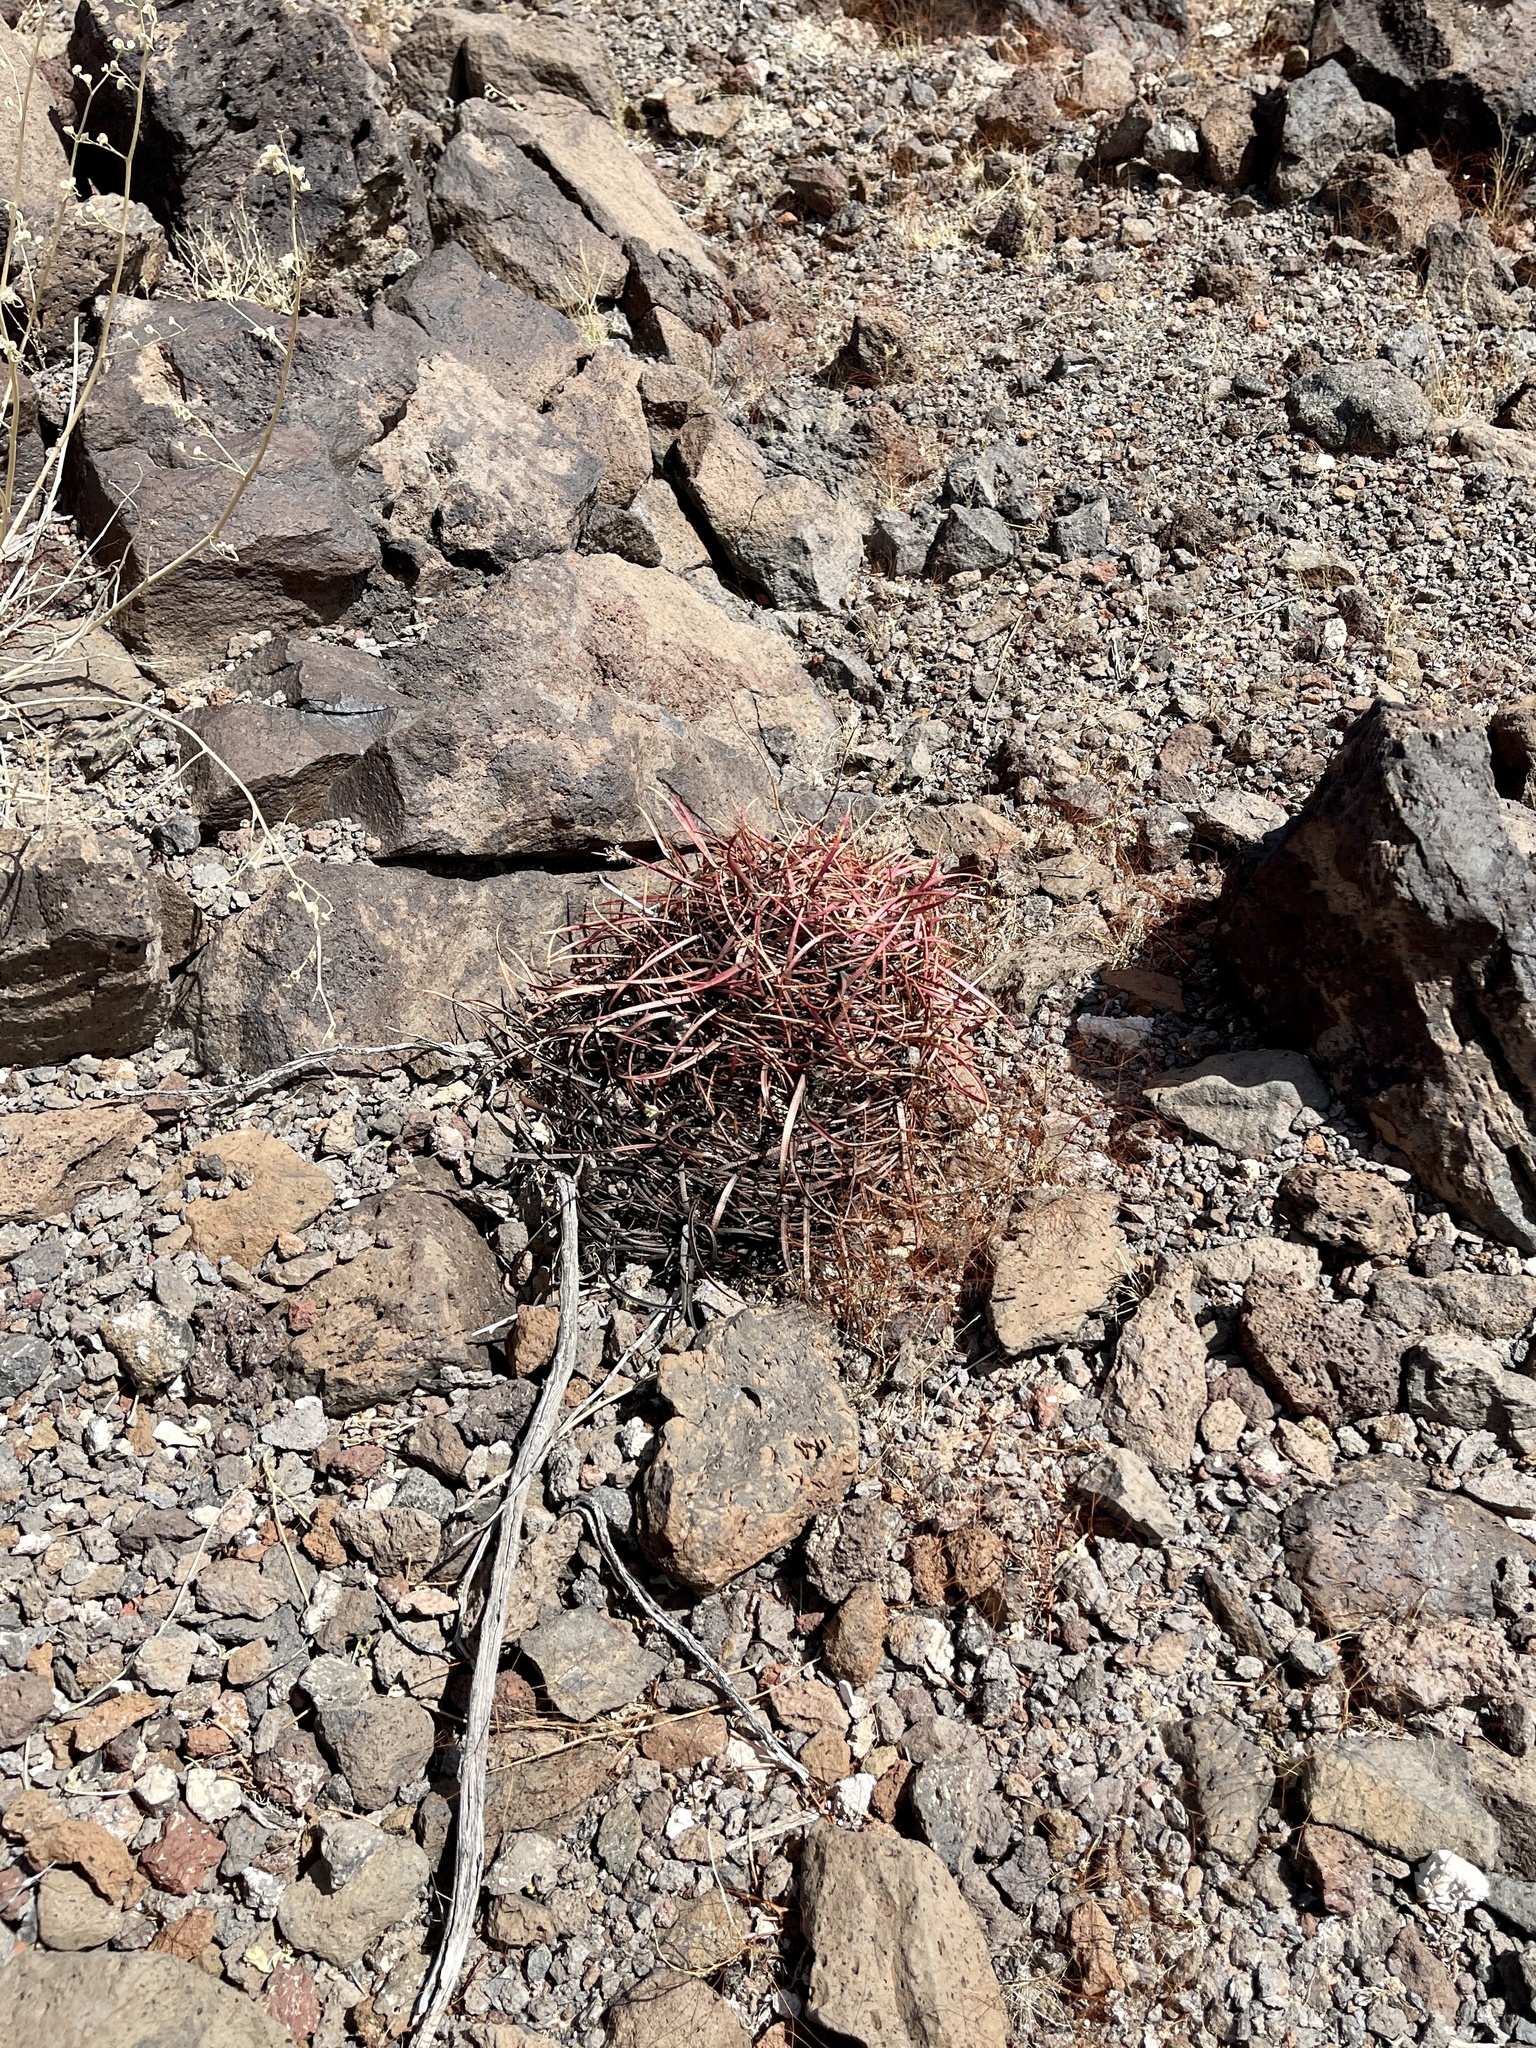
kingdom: Plantae
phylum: Tracheophyta
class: Magnoliopsida
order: Caryophyllales
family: Cactaceae
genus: Ferocactus
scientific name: Ferocactus cylindraceus
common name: California barrel cactus
